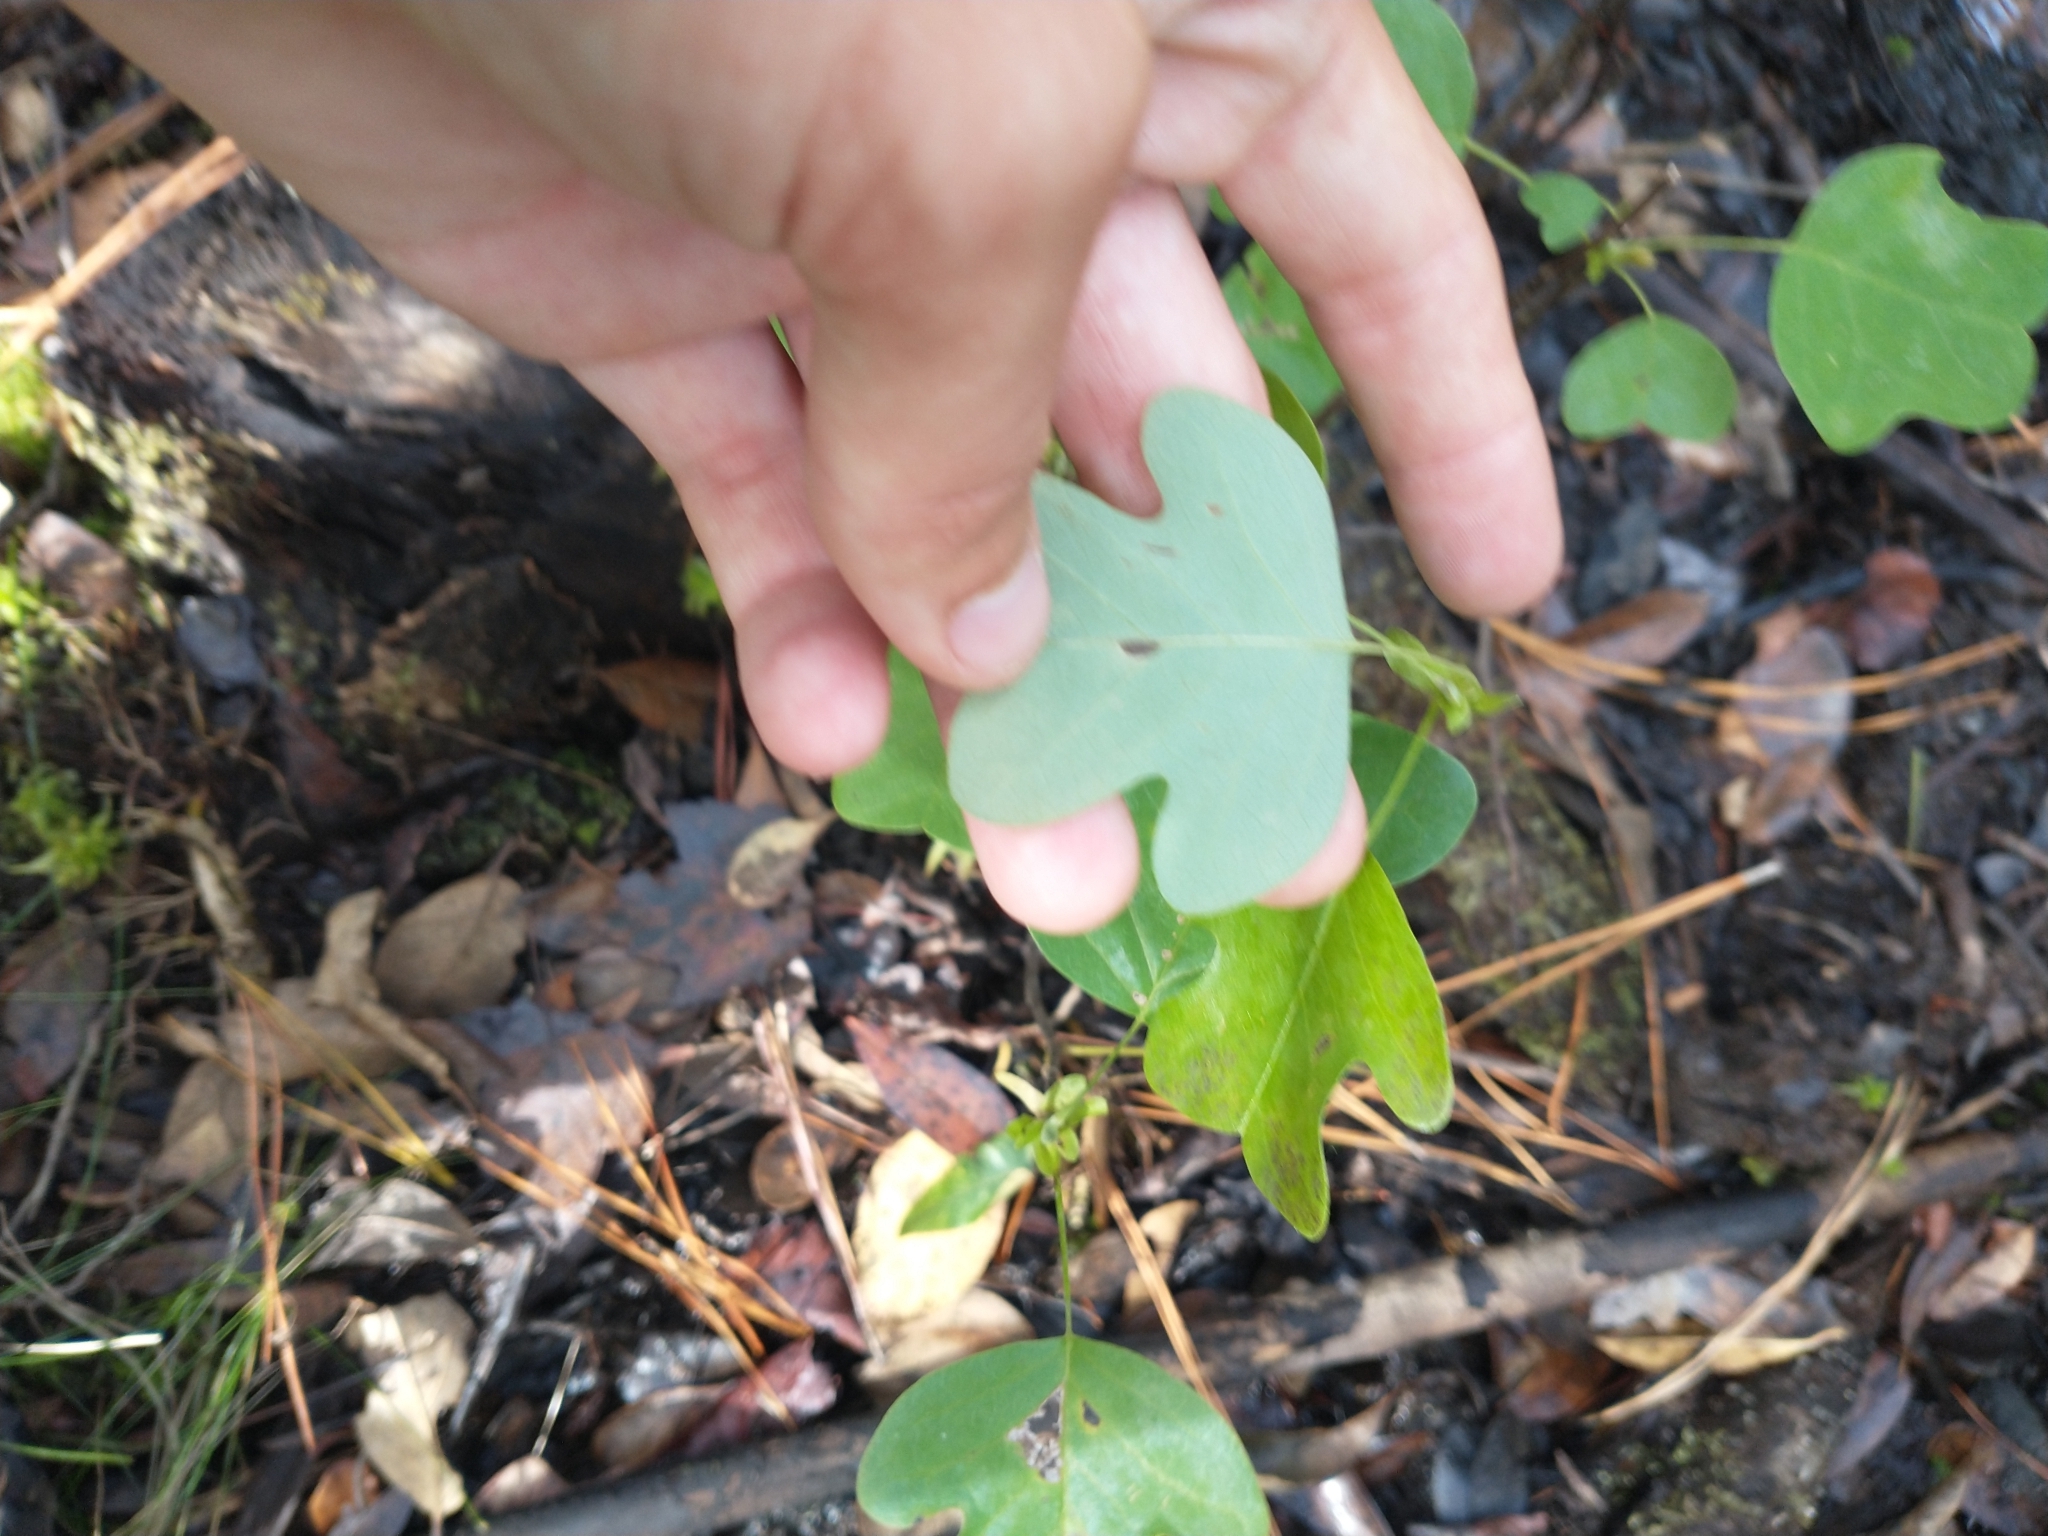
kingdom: Plantae
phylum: Tracheophyta
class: Magnoliopsida
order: Magnoliales
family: Magnoliaceae
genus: Liriodendron
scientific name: Liriodendron tulipifera
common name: Tulip tree
